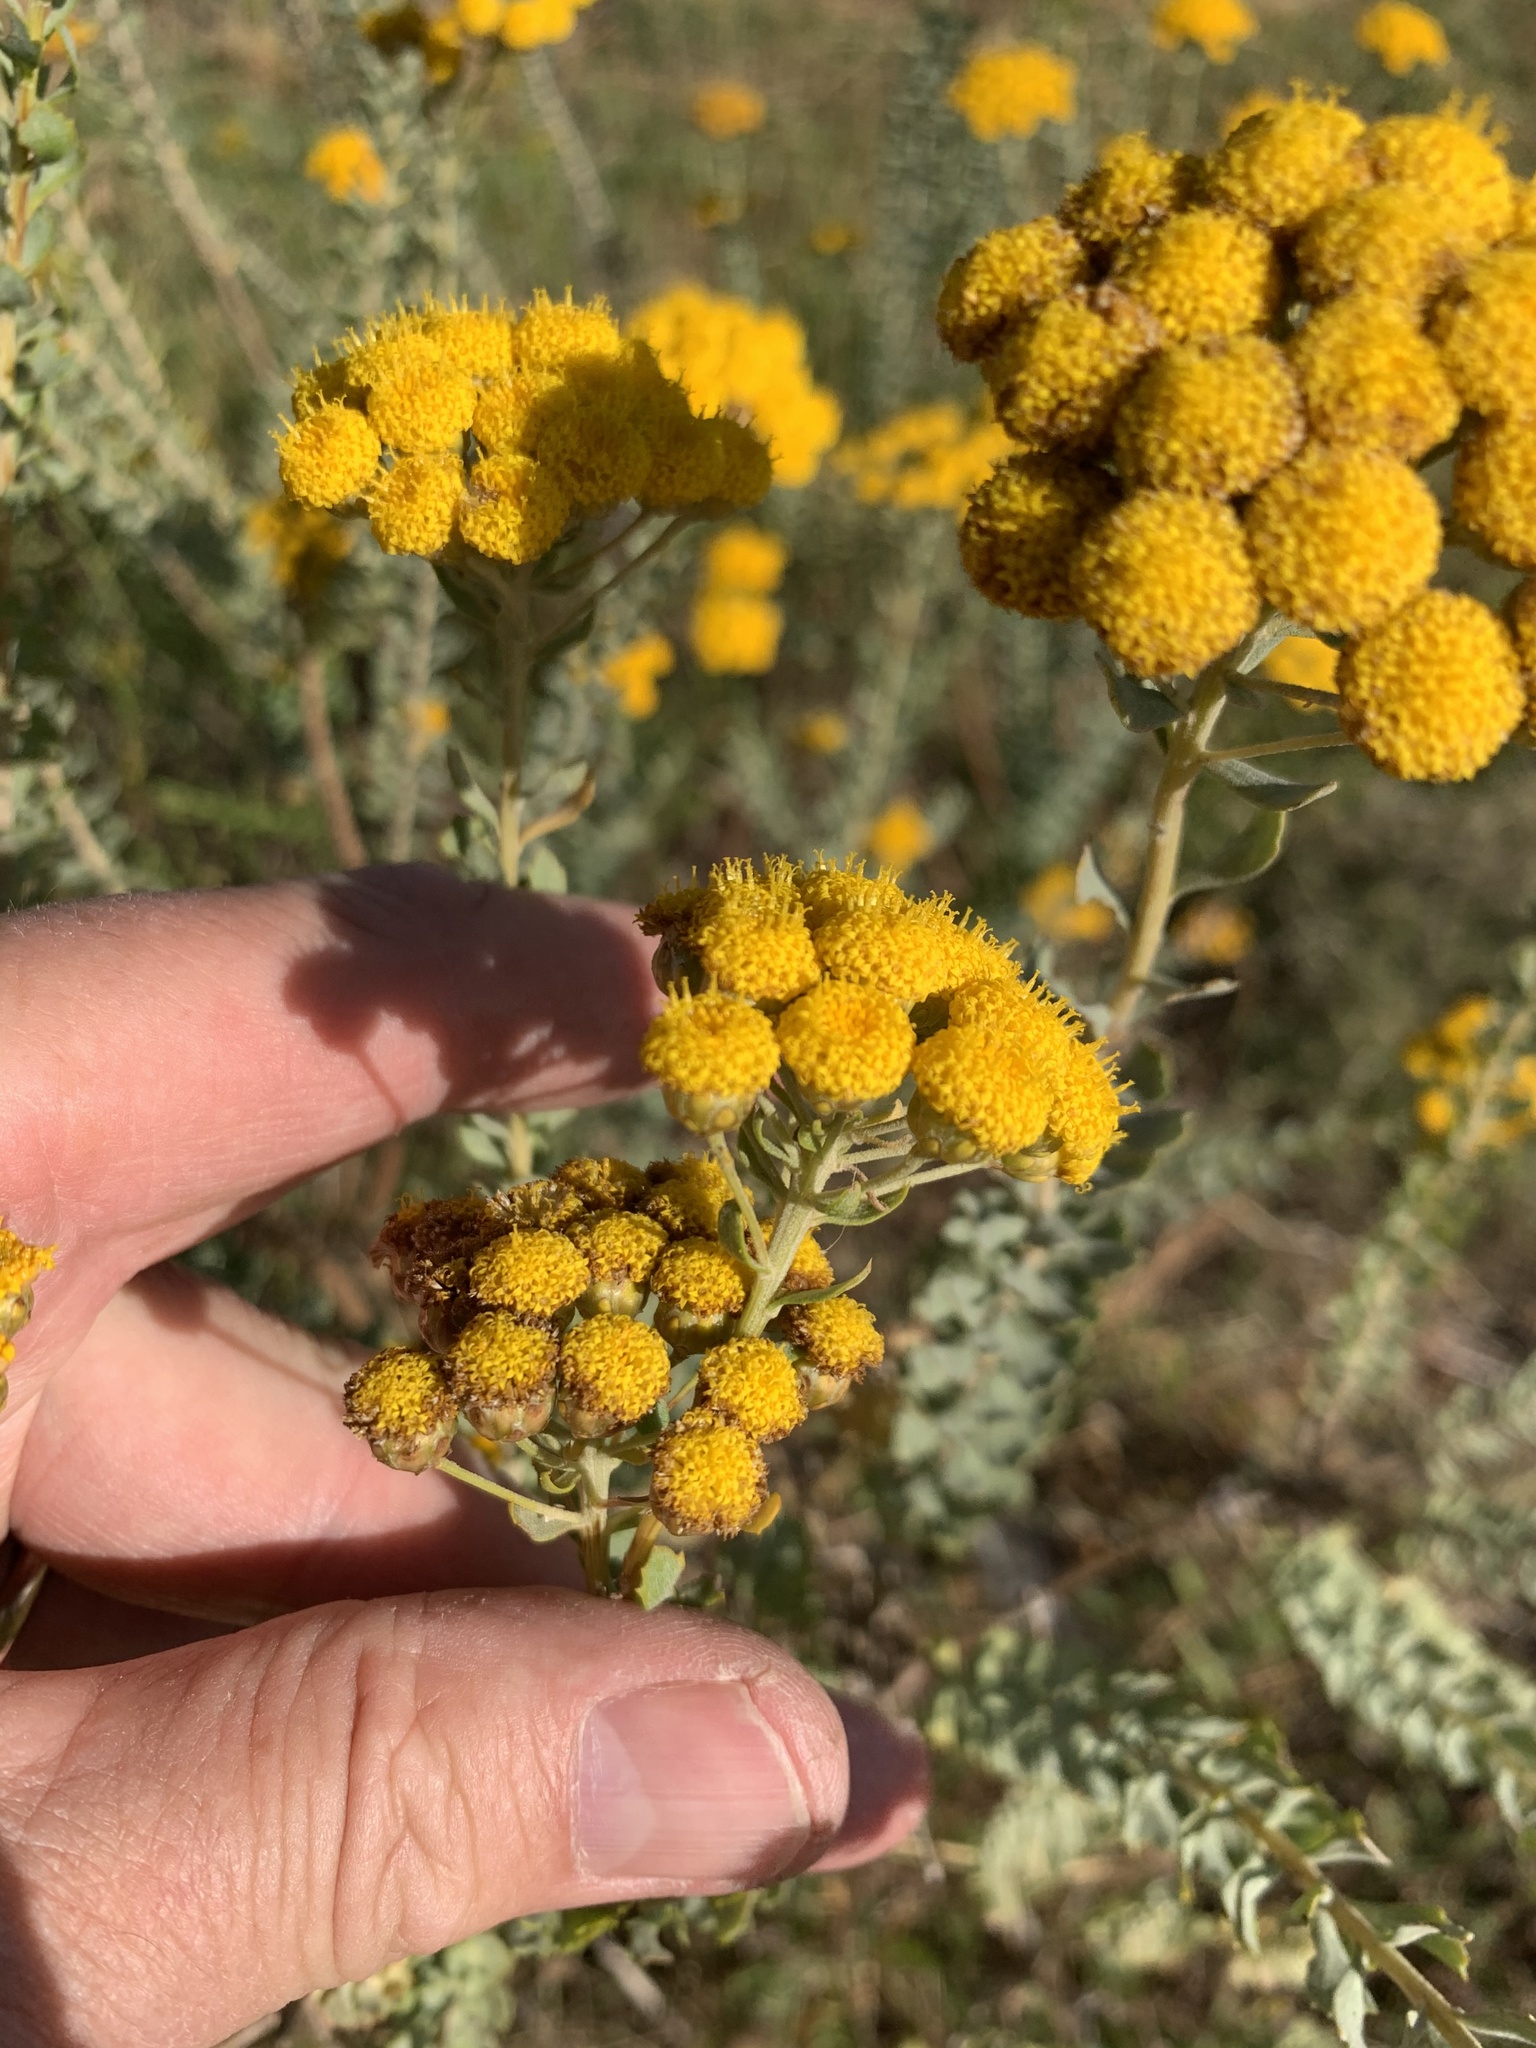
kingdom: Plantae
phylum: Tracheophyta
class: Magnoliopsida
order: Asterales
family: Asteraceae
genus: Athanasia
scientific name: Athanasia trifurcata
